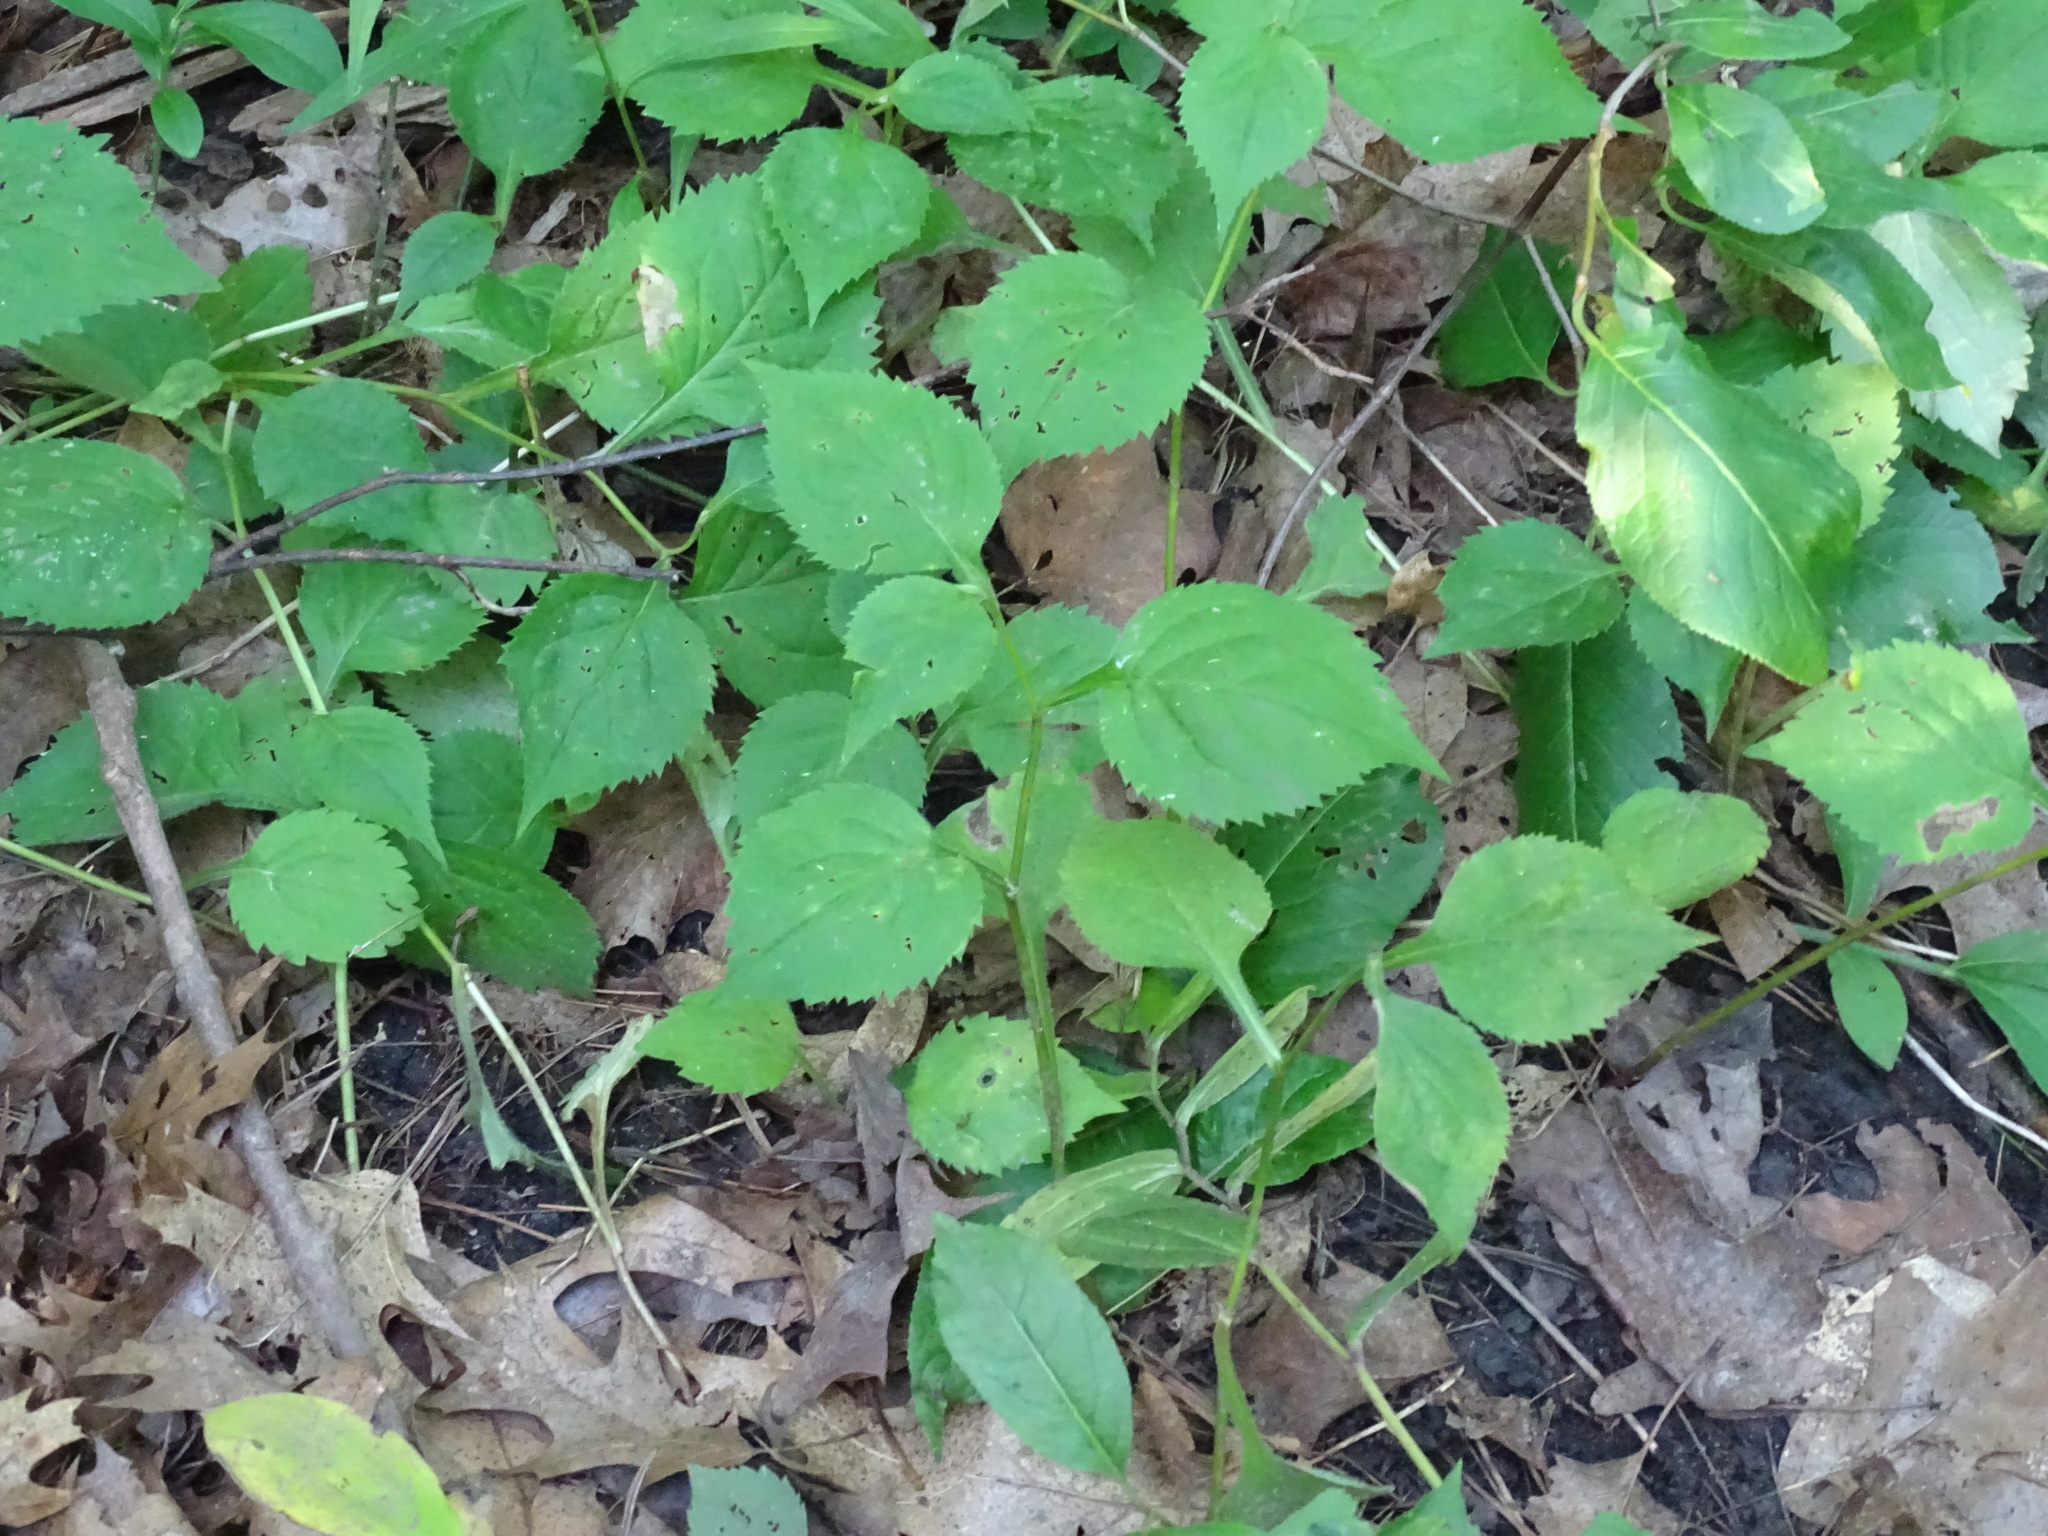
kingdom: Plantae
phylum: Tracheophyta
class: Magnoliopsida
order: Asterales
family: Asteraceae
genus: Solidago
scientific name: Solidago flexicaulis
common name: Zig-zag goldenrod
